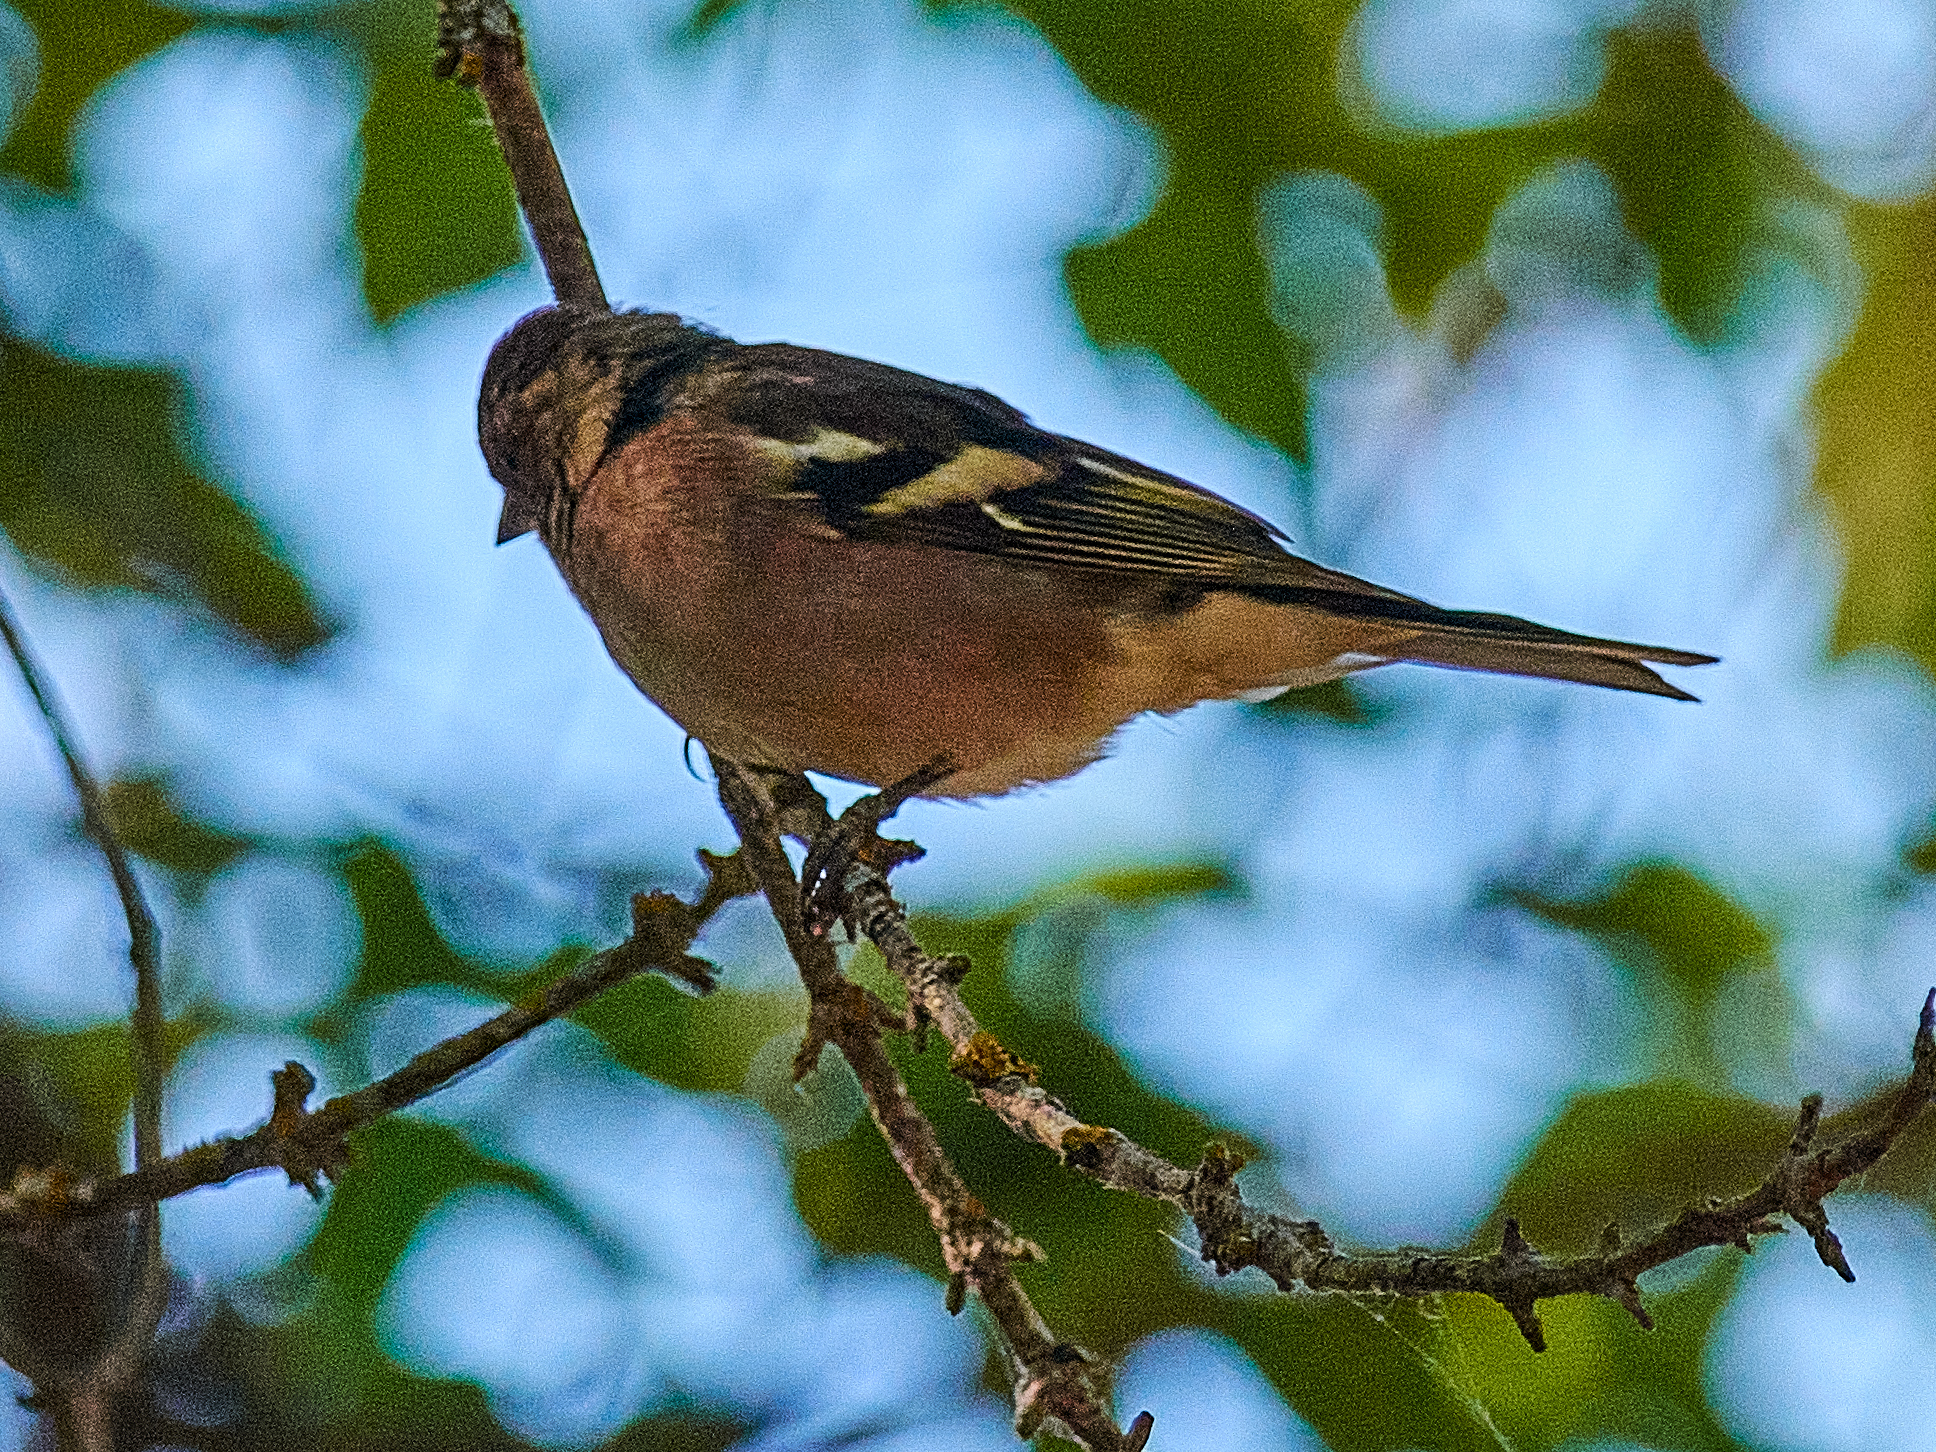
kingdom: Animalia
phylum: Chordata
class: Aves
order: Passeriformes
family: Fringillidae
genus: Fringilla
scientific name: Fringilla coelebs
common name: Common chaffinch
